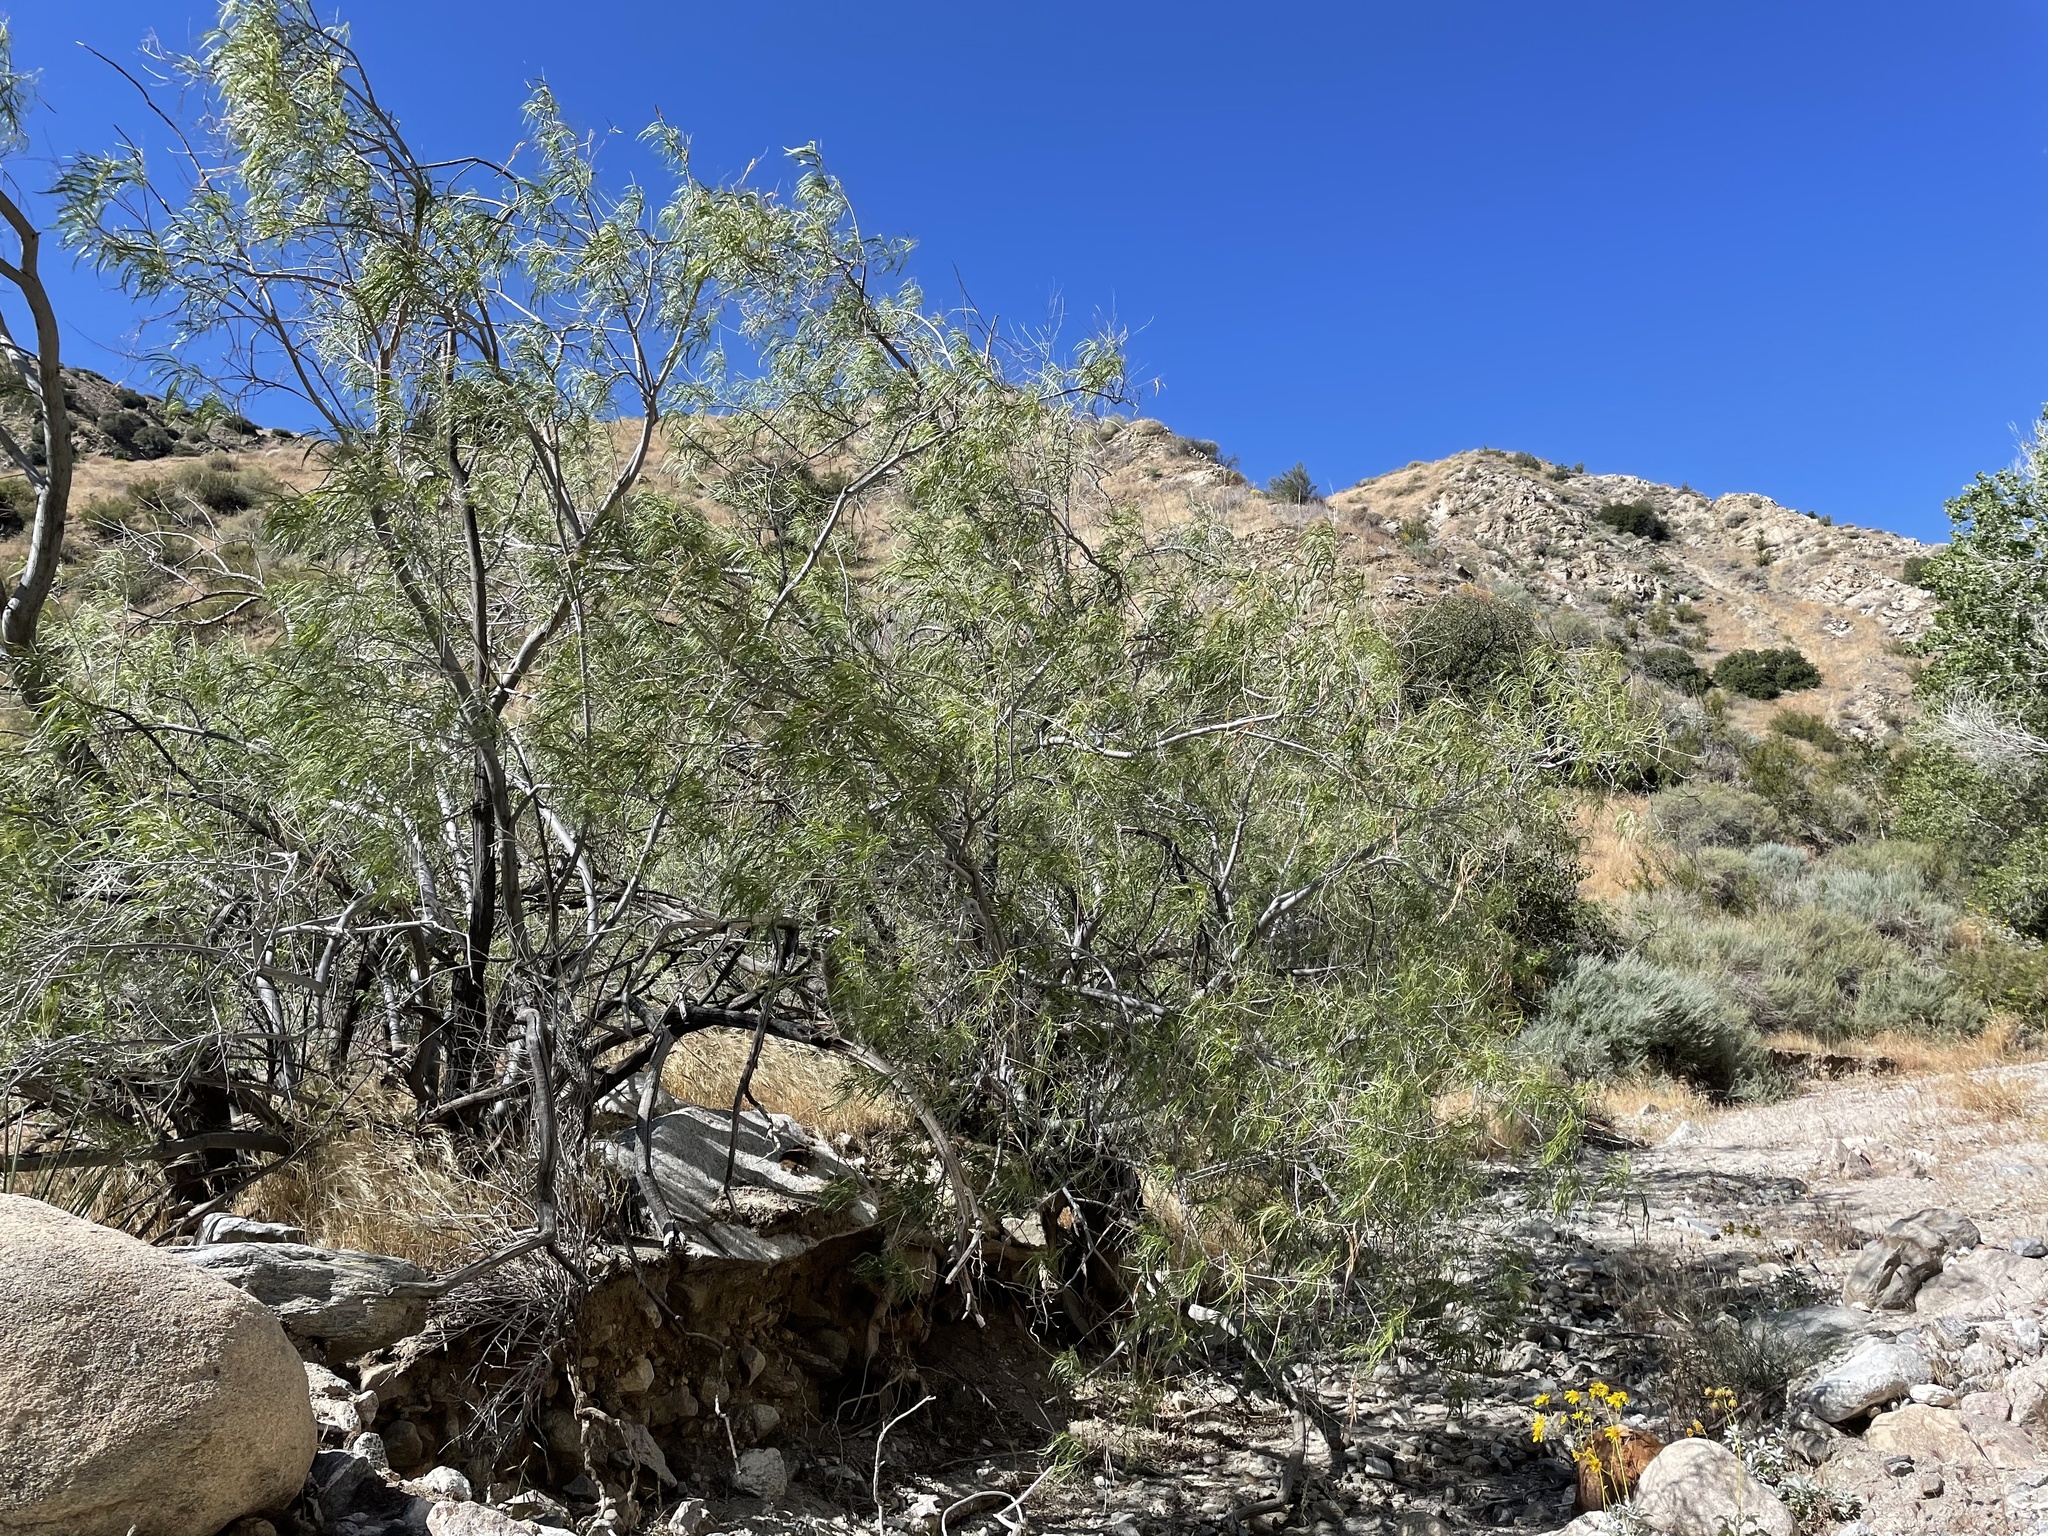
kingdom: Plantae
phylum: Tracheophyta
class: Magnoliopsida
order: Lamiales
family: Bignoniaceae
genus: Chilopsis
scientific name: Chilopsis linearis
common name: Desert-willow
